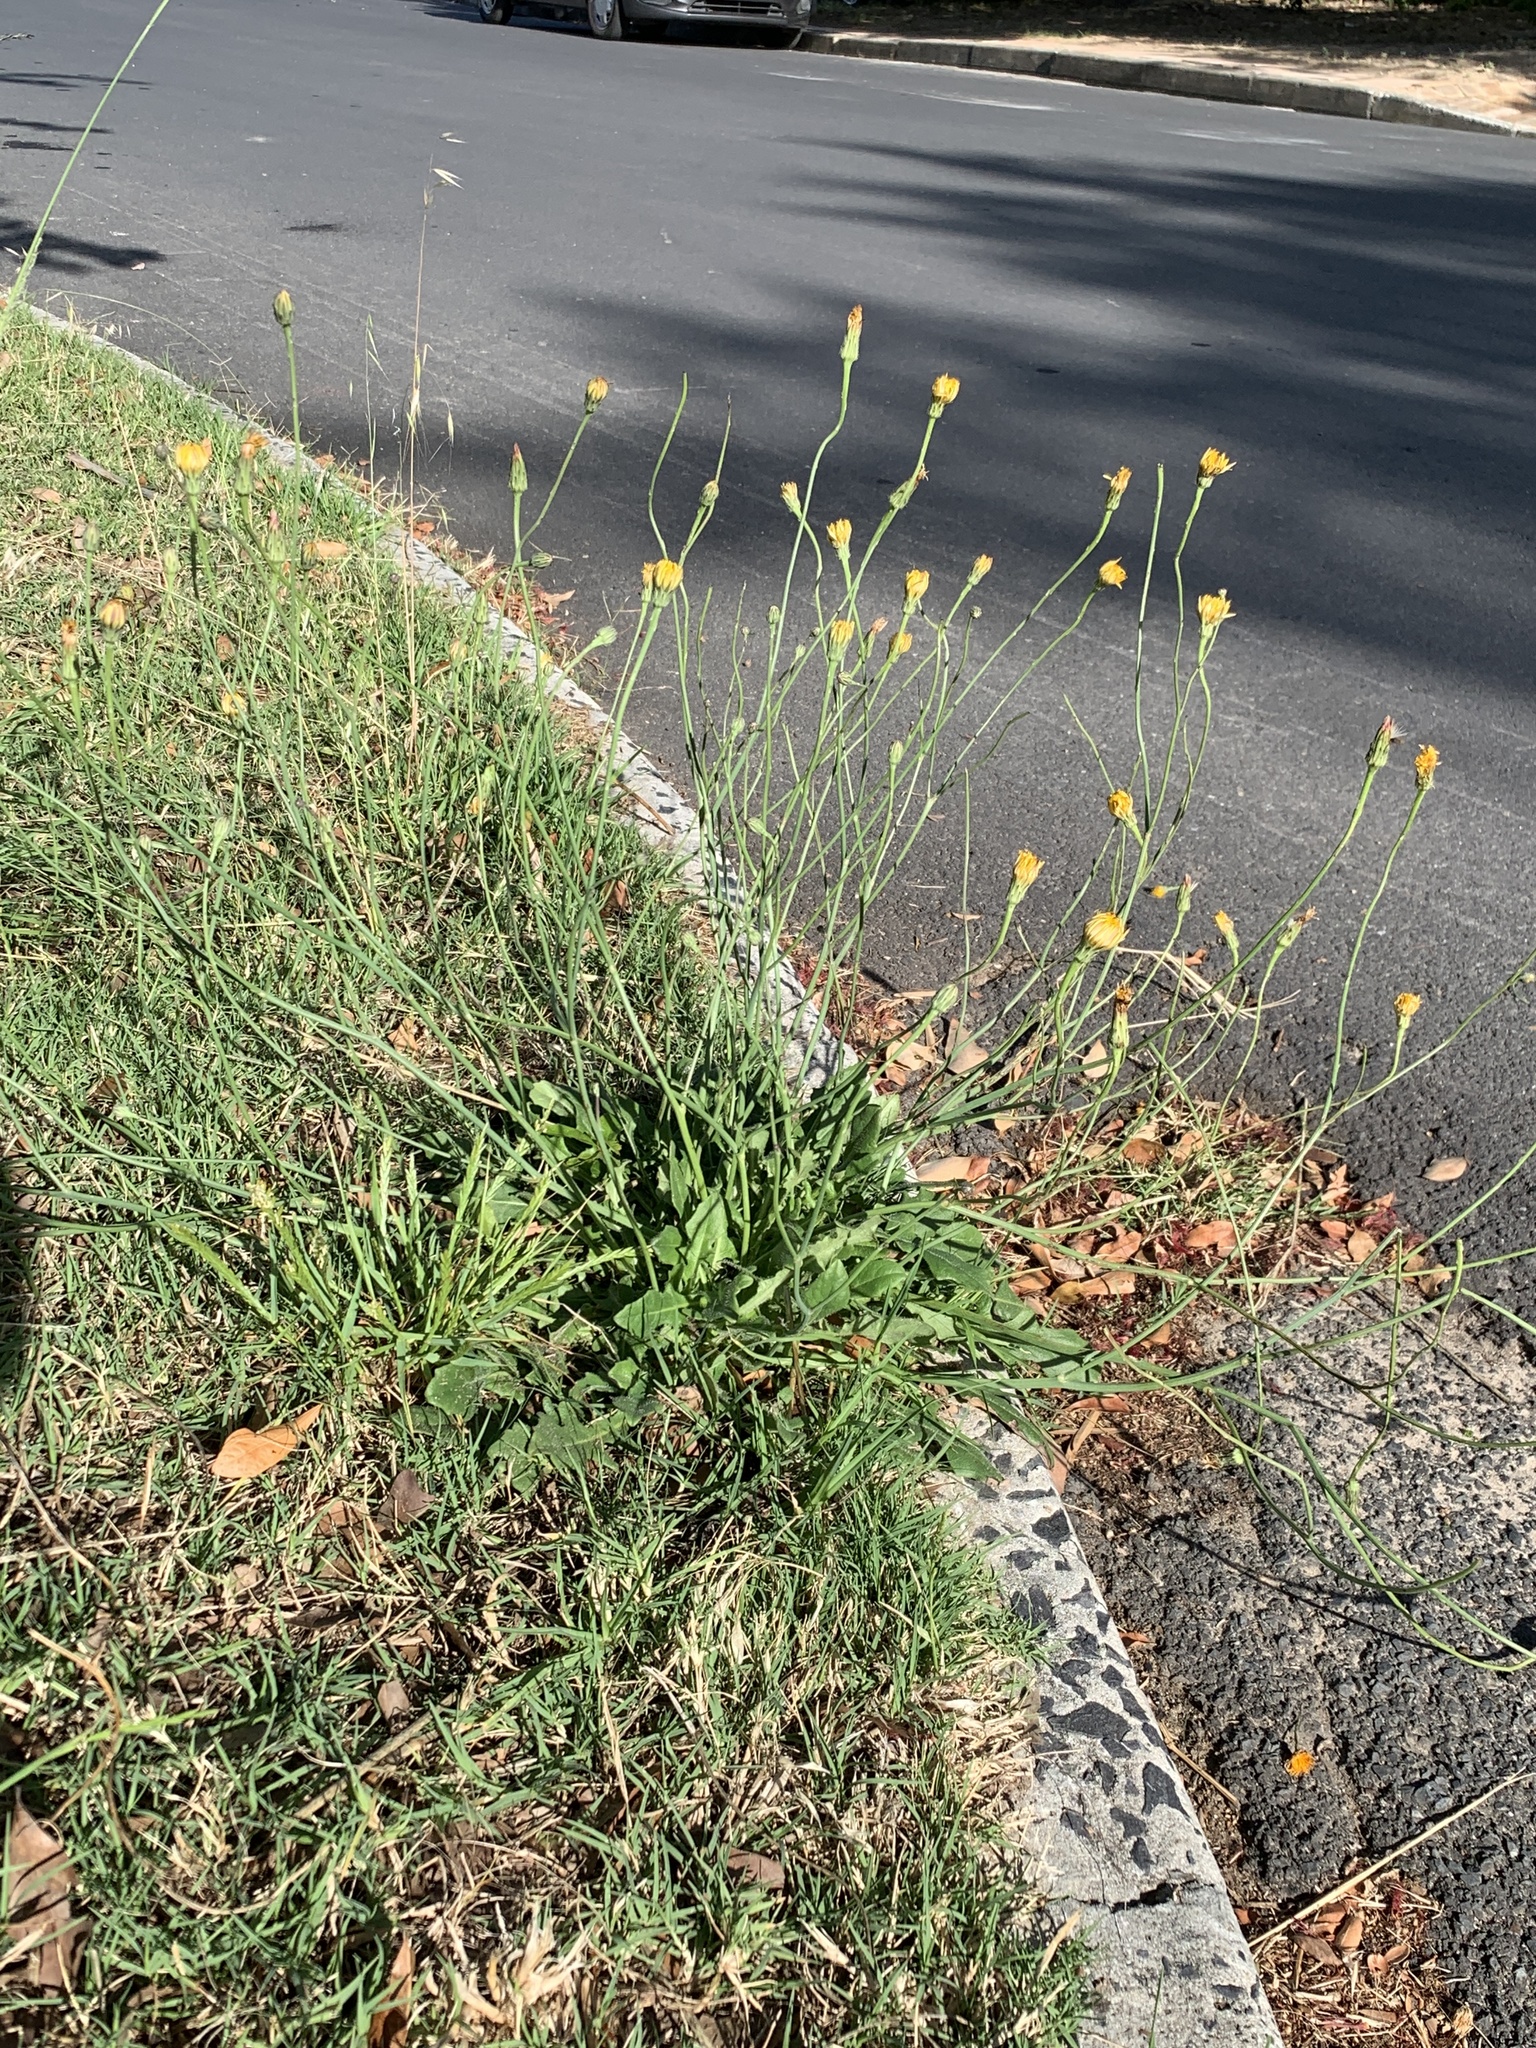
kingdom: Plantae
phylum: Tracheophyta
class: Magnoliopsida
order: Asterales
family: Asteraceae
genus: Hypochaeris
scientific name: Hypochaeris radicata
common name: Flatweed
